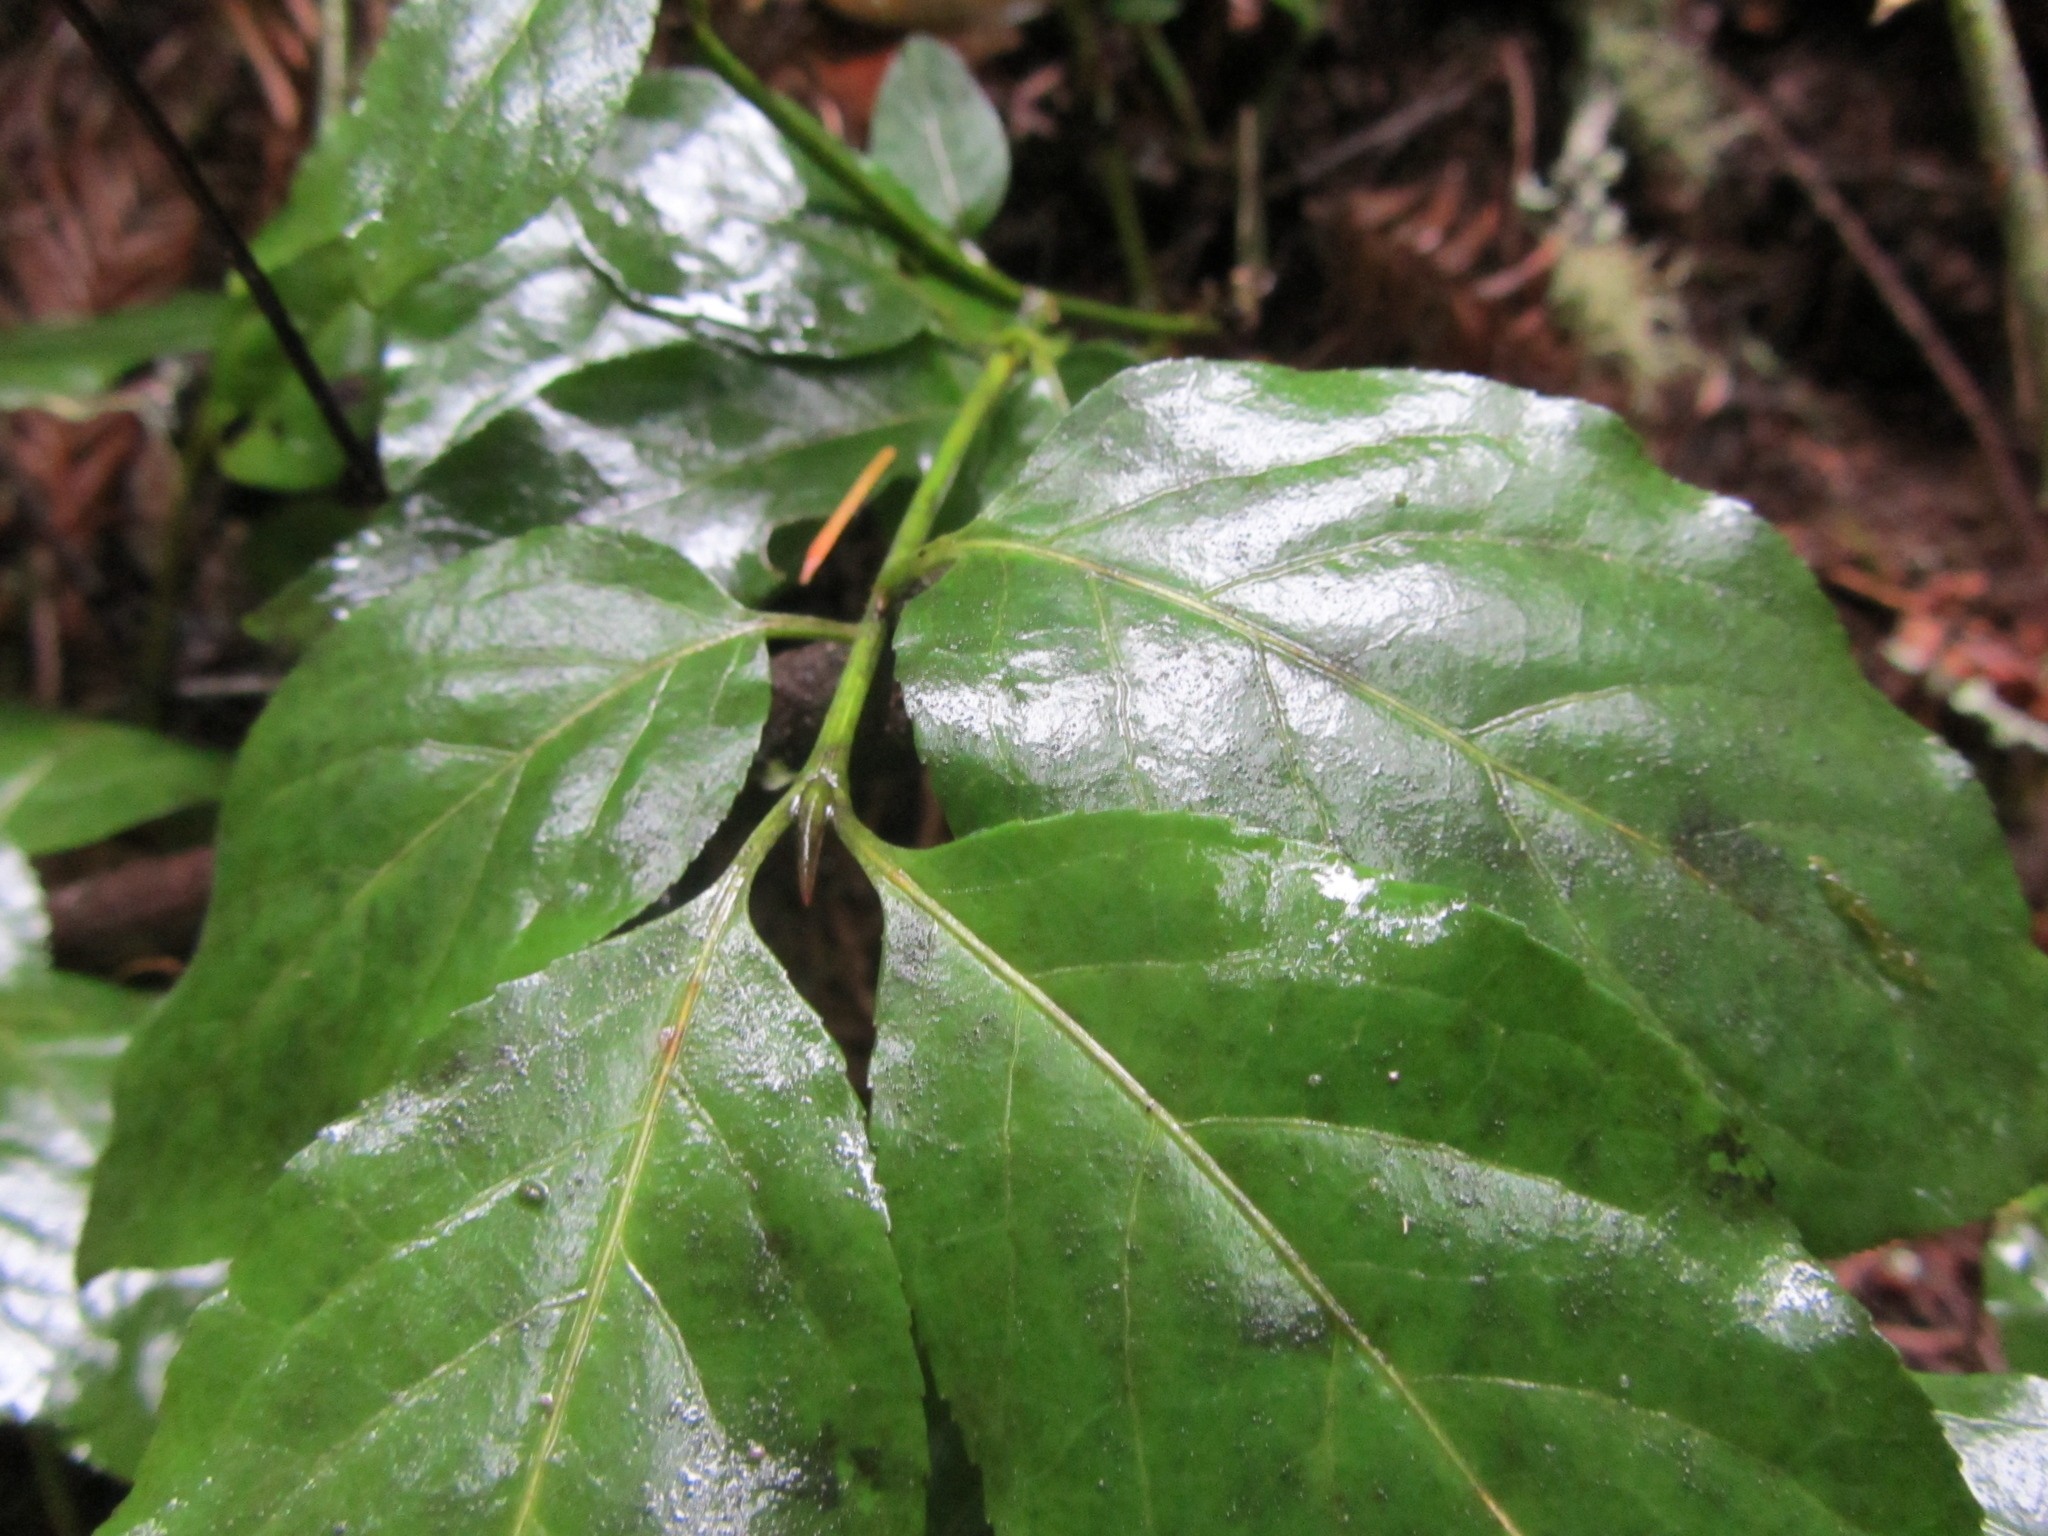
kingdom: Plantae
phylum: Tracheophyta
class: Magnoliopsida
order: Celastrales
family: Celastraceae
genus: Euonymus
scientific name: Euonymus occidentalis
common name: Western burningbush
